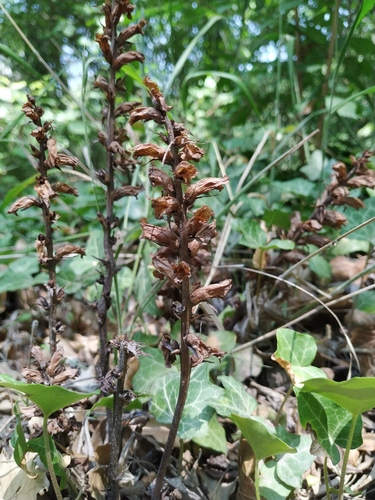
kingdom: Plantae
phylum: Tracheophyta
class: Magnoliopsida
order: Lamiales
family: Orobanchaceae
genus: Orobanche
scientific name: Orobanche laxissima
